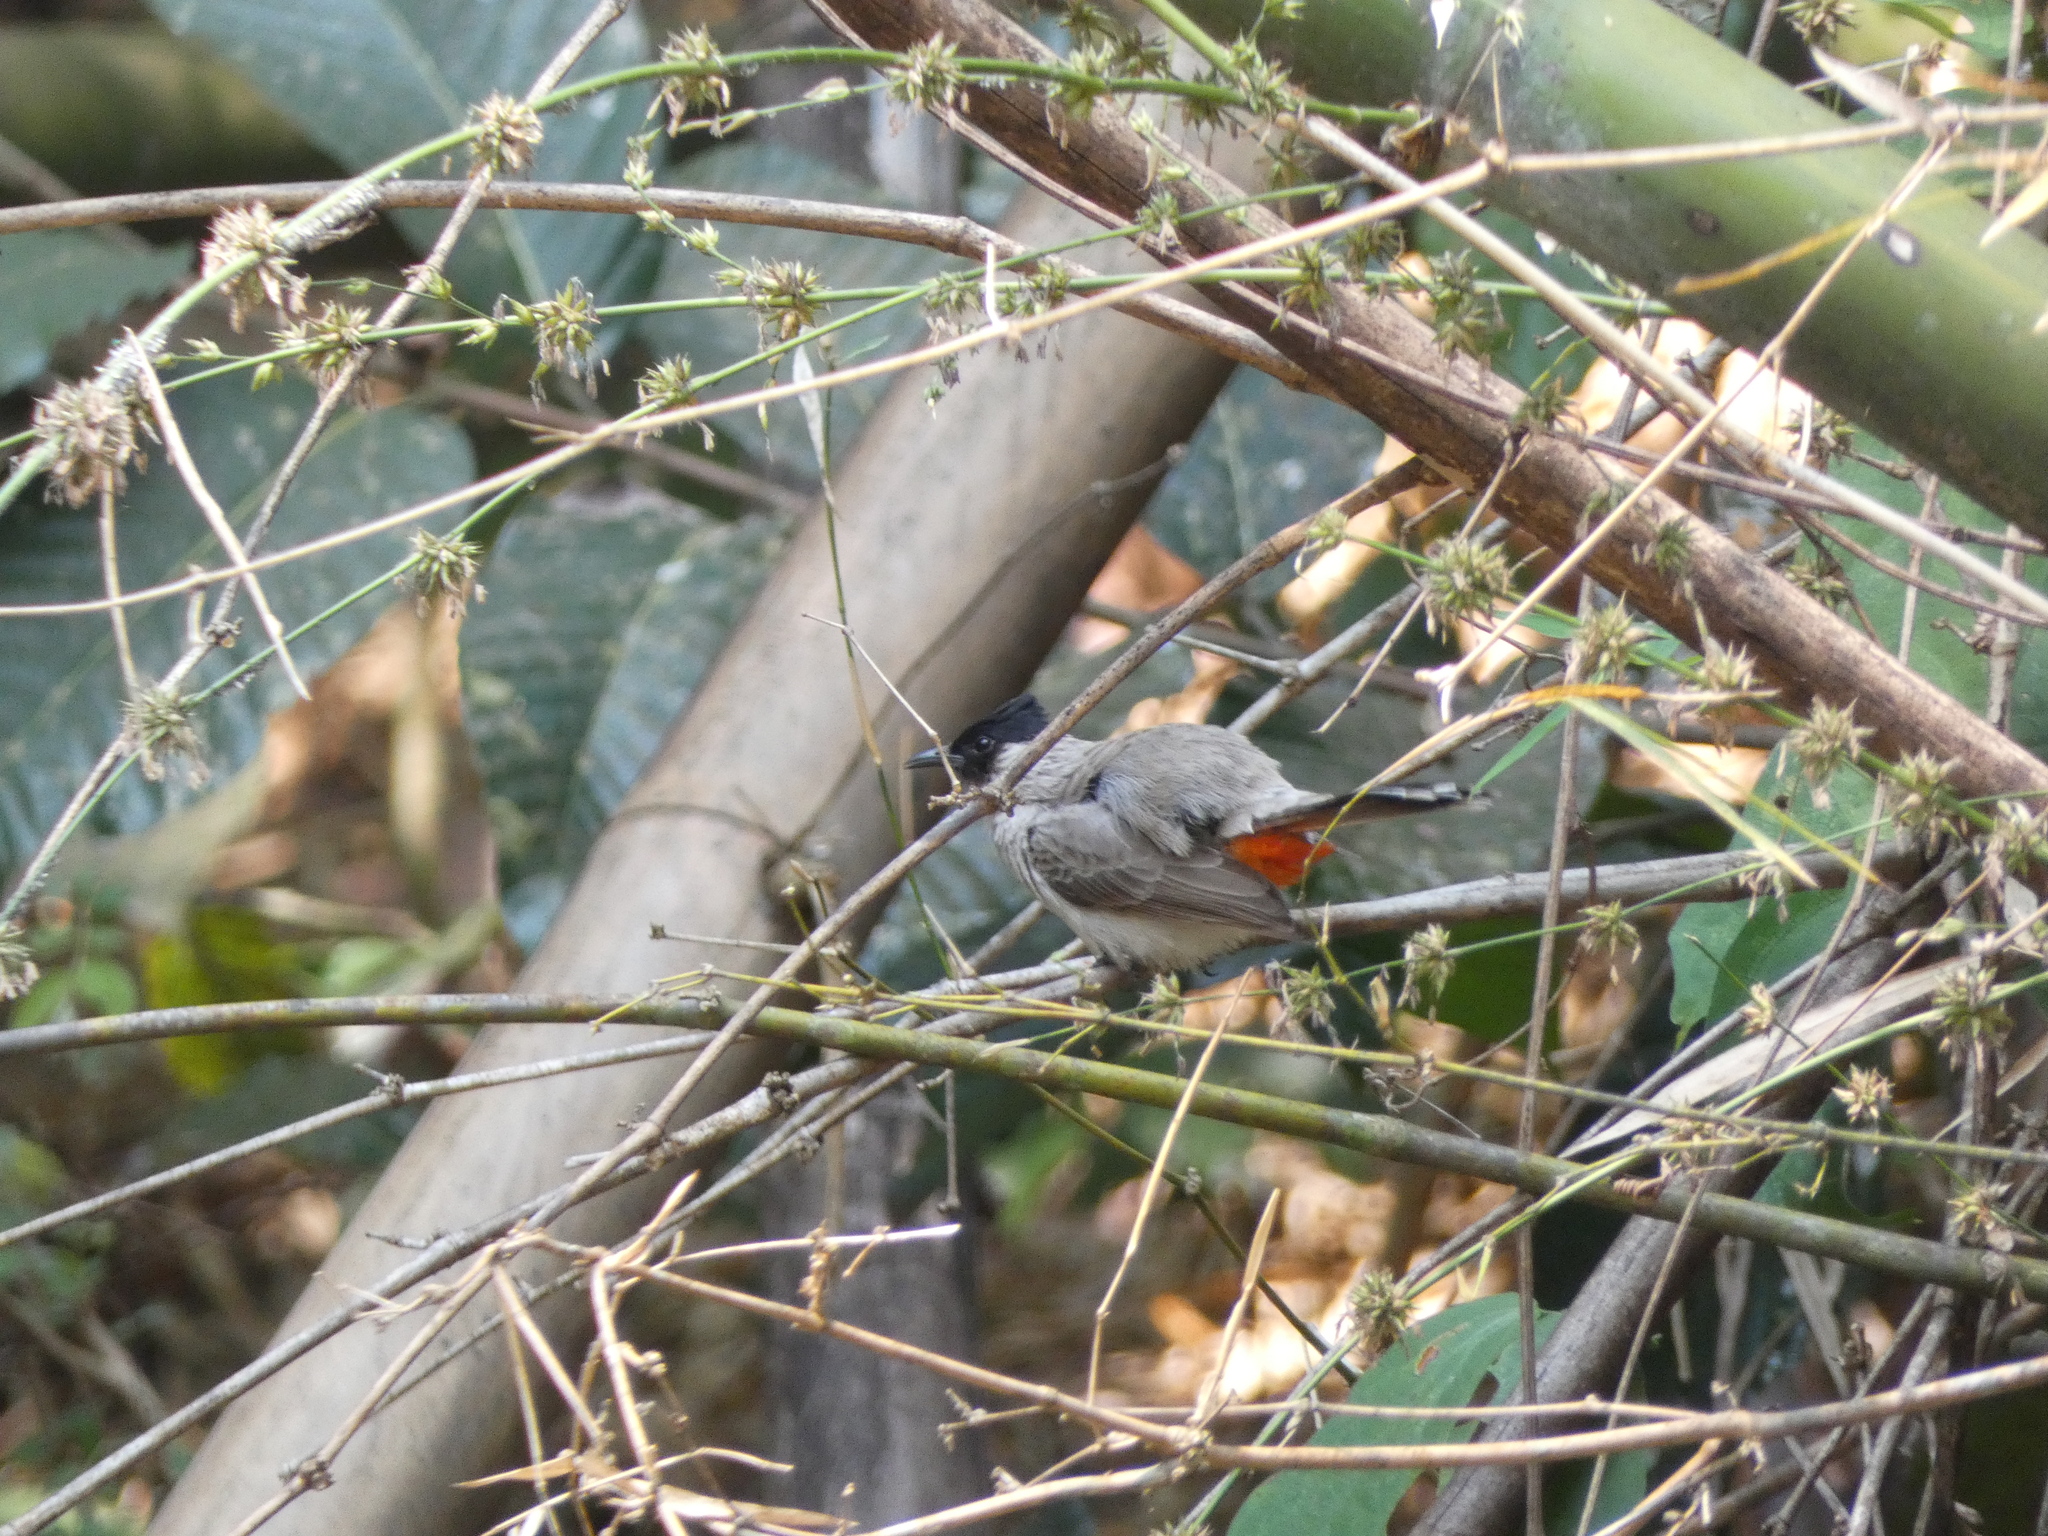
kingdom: Animalia
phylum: Chordata
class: Aves
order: Passeriformes
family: Pycnonotidae
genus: Pycnonotus
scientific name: Pycnonotus aurigaster
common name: Sooty-headed bulbul
